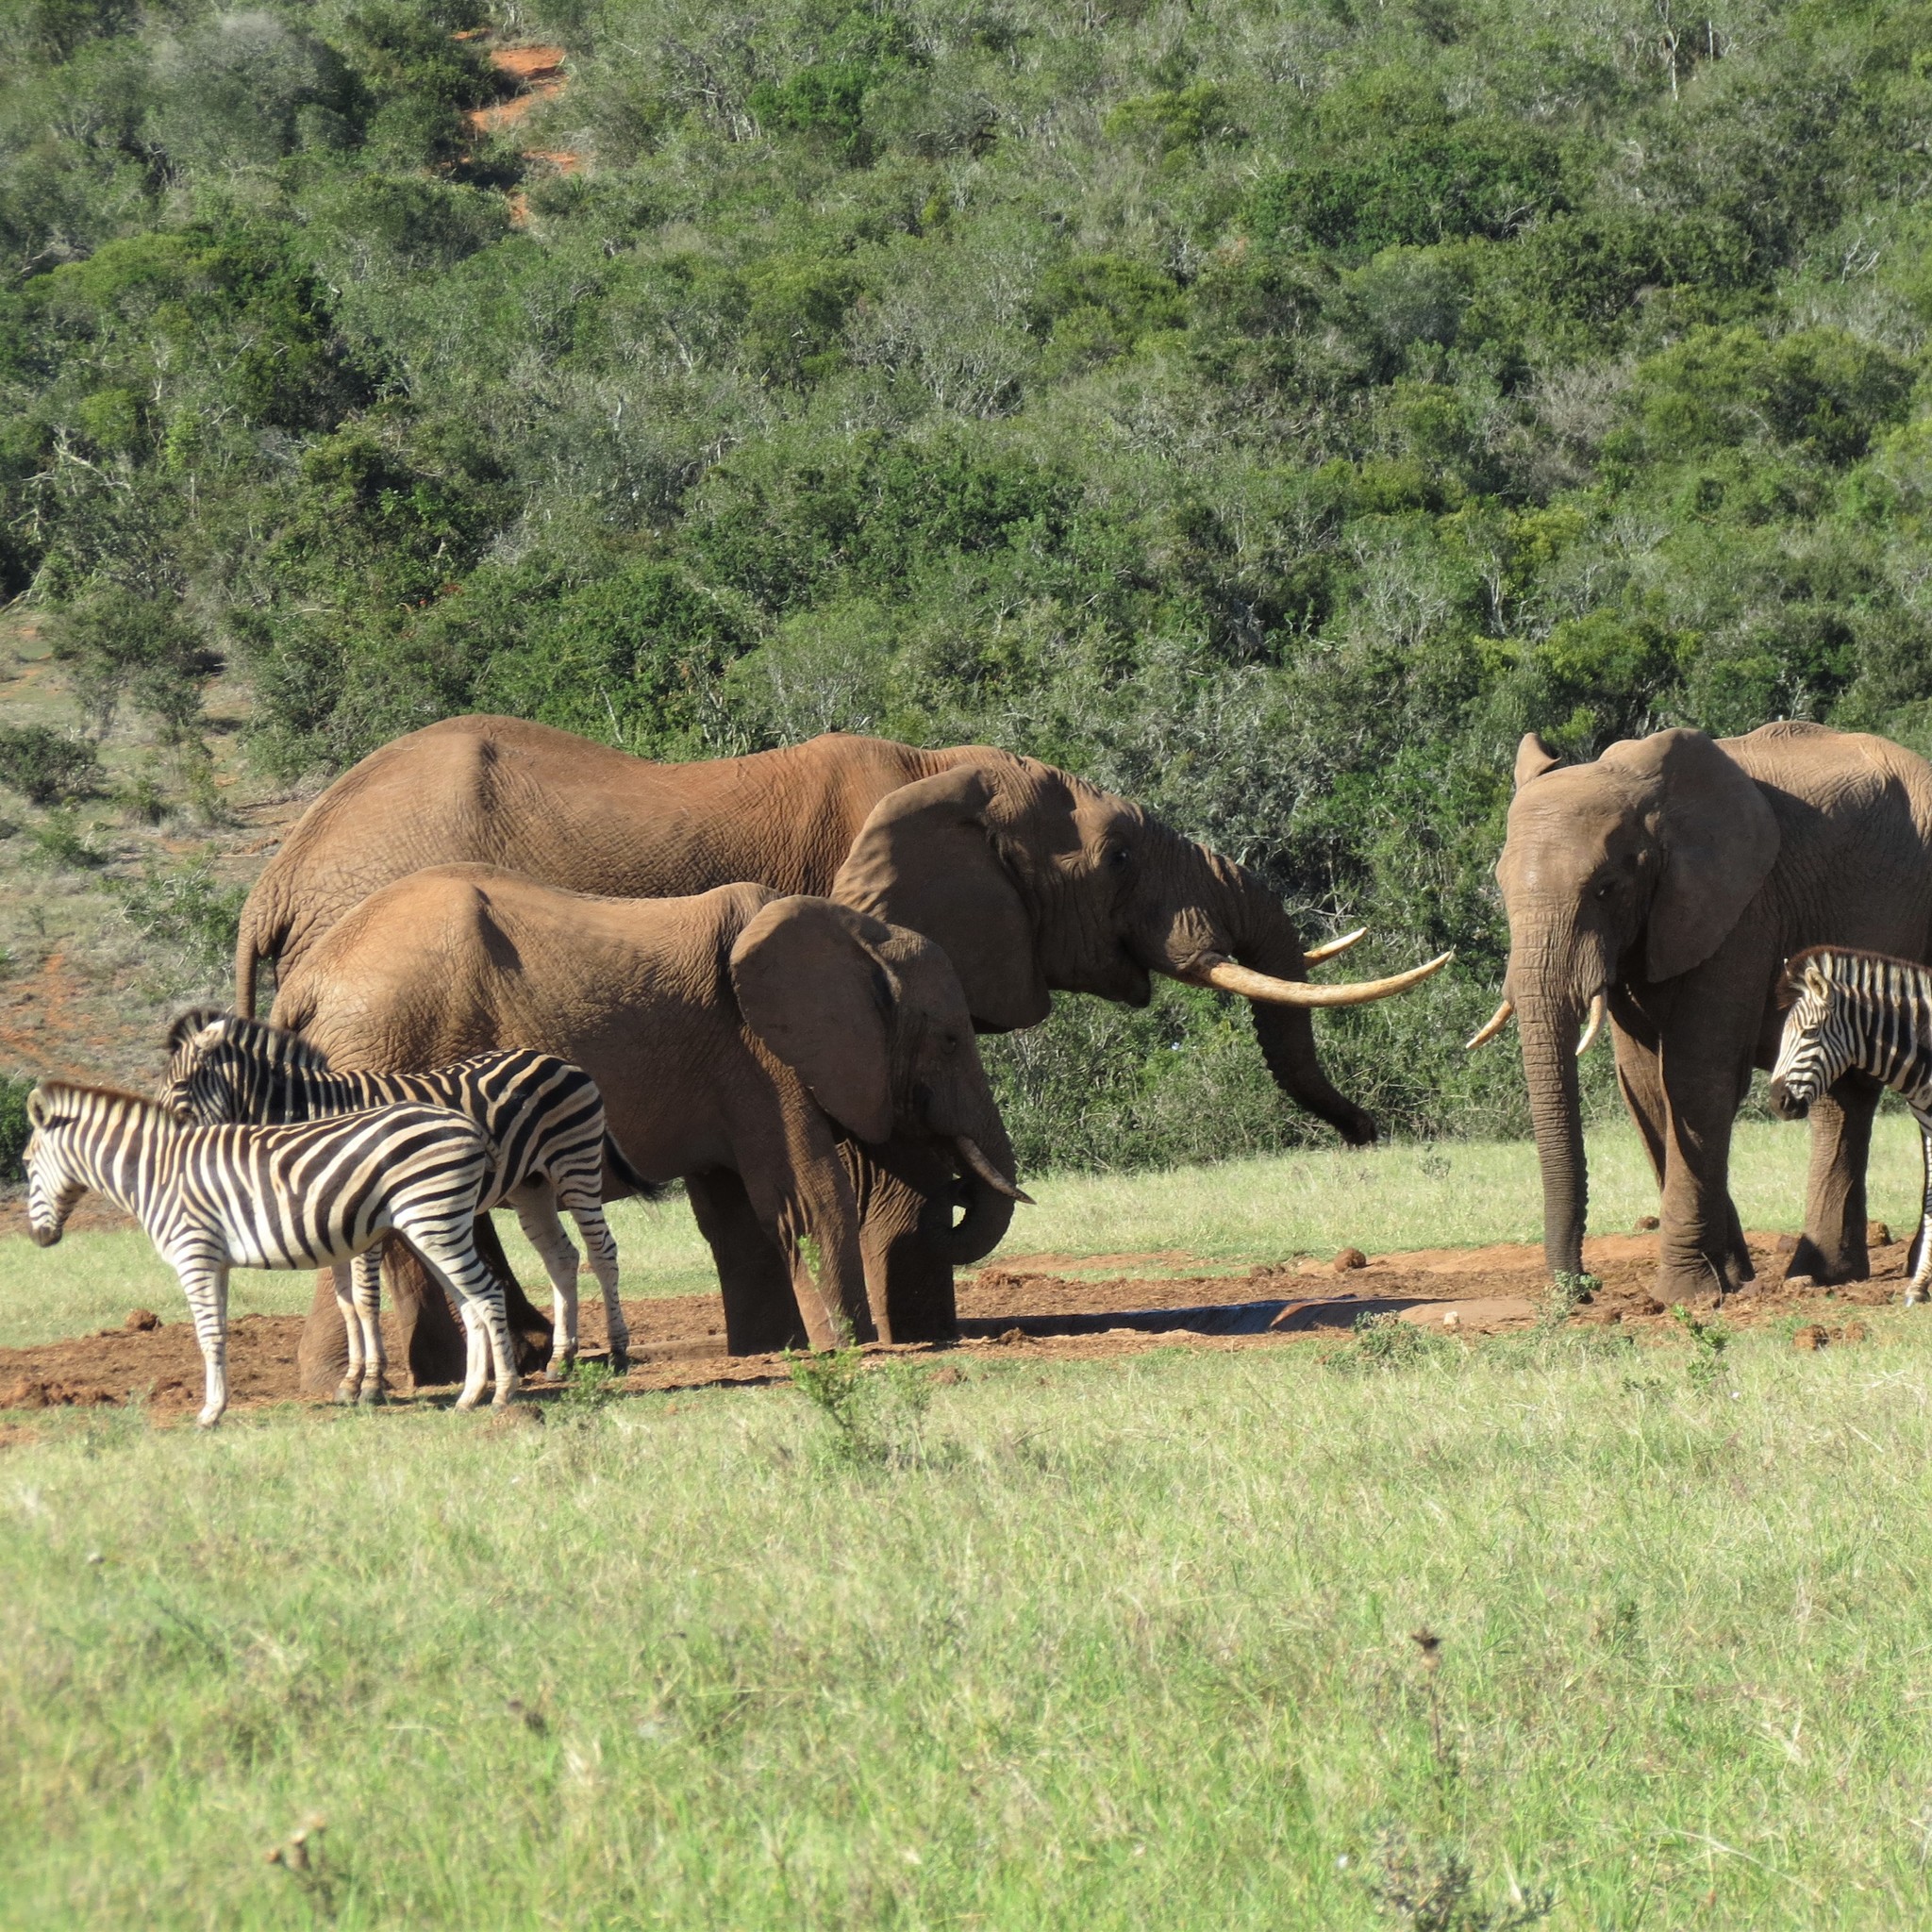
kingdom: Animalia
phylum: Chordata
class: Mammalia
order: Proboscidea
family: Elephantidae
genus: Loxodonta
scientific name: Loxodonta africana
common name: African elephant
